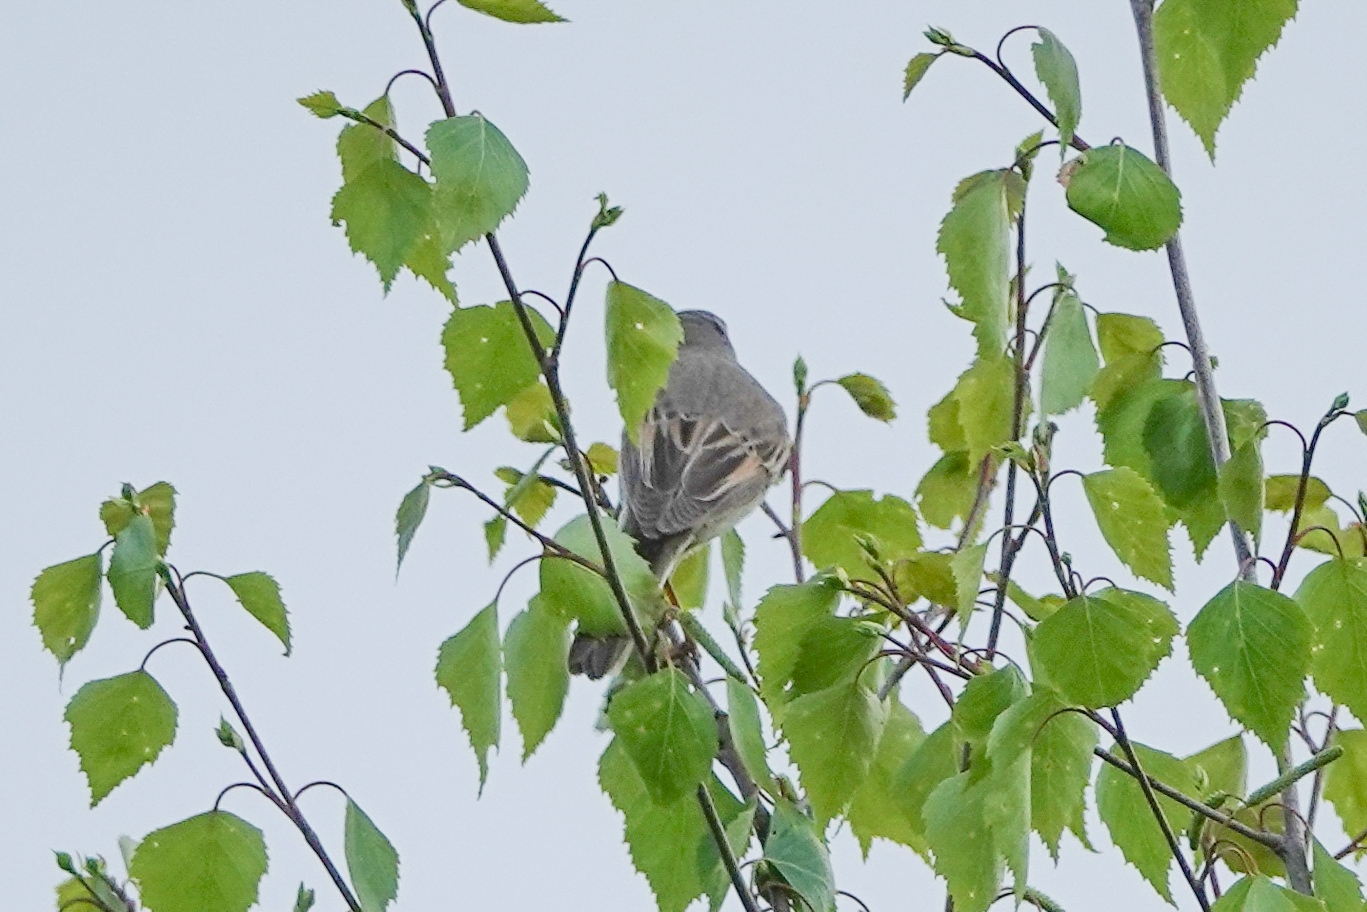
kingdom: Animalia
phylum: Chordata
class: Aves
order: Passeriformes
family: Sylviidae
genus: Sylvia
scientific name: Sylvia communis
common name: Common whitethroat
